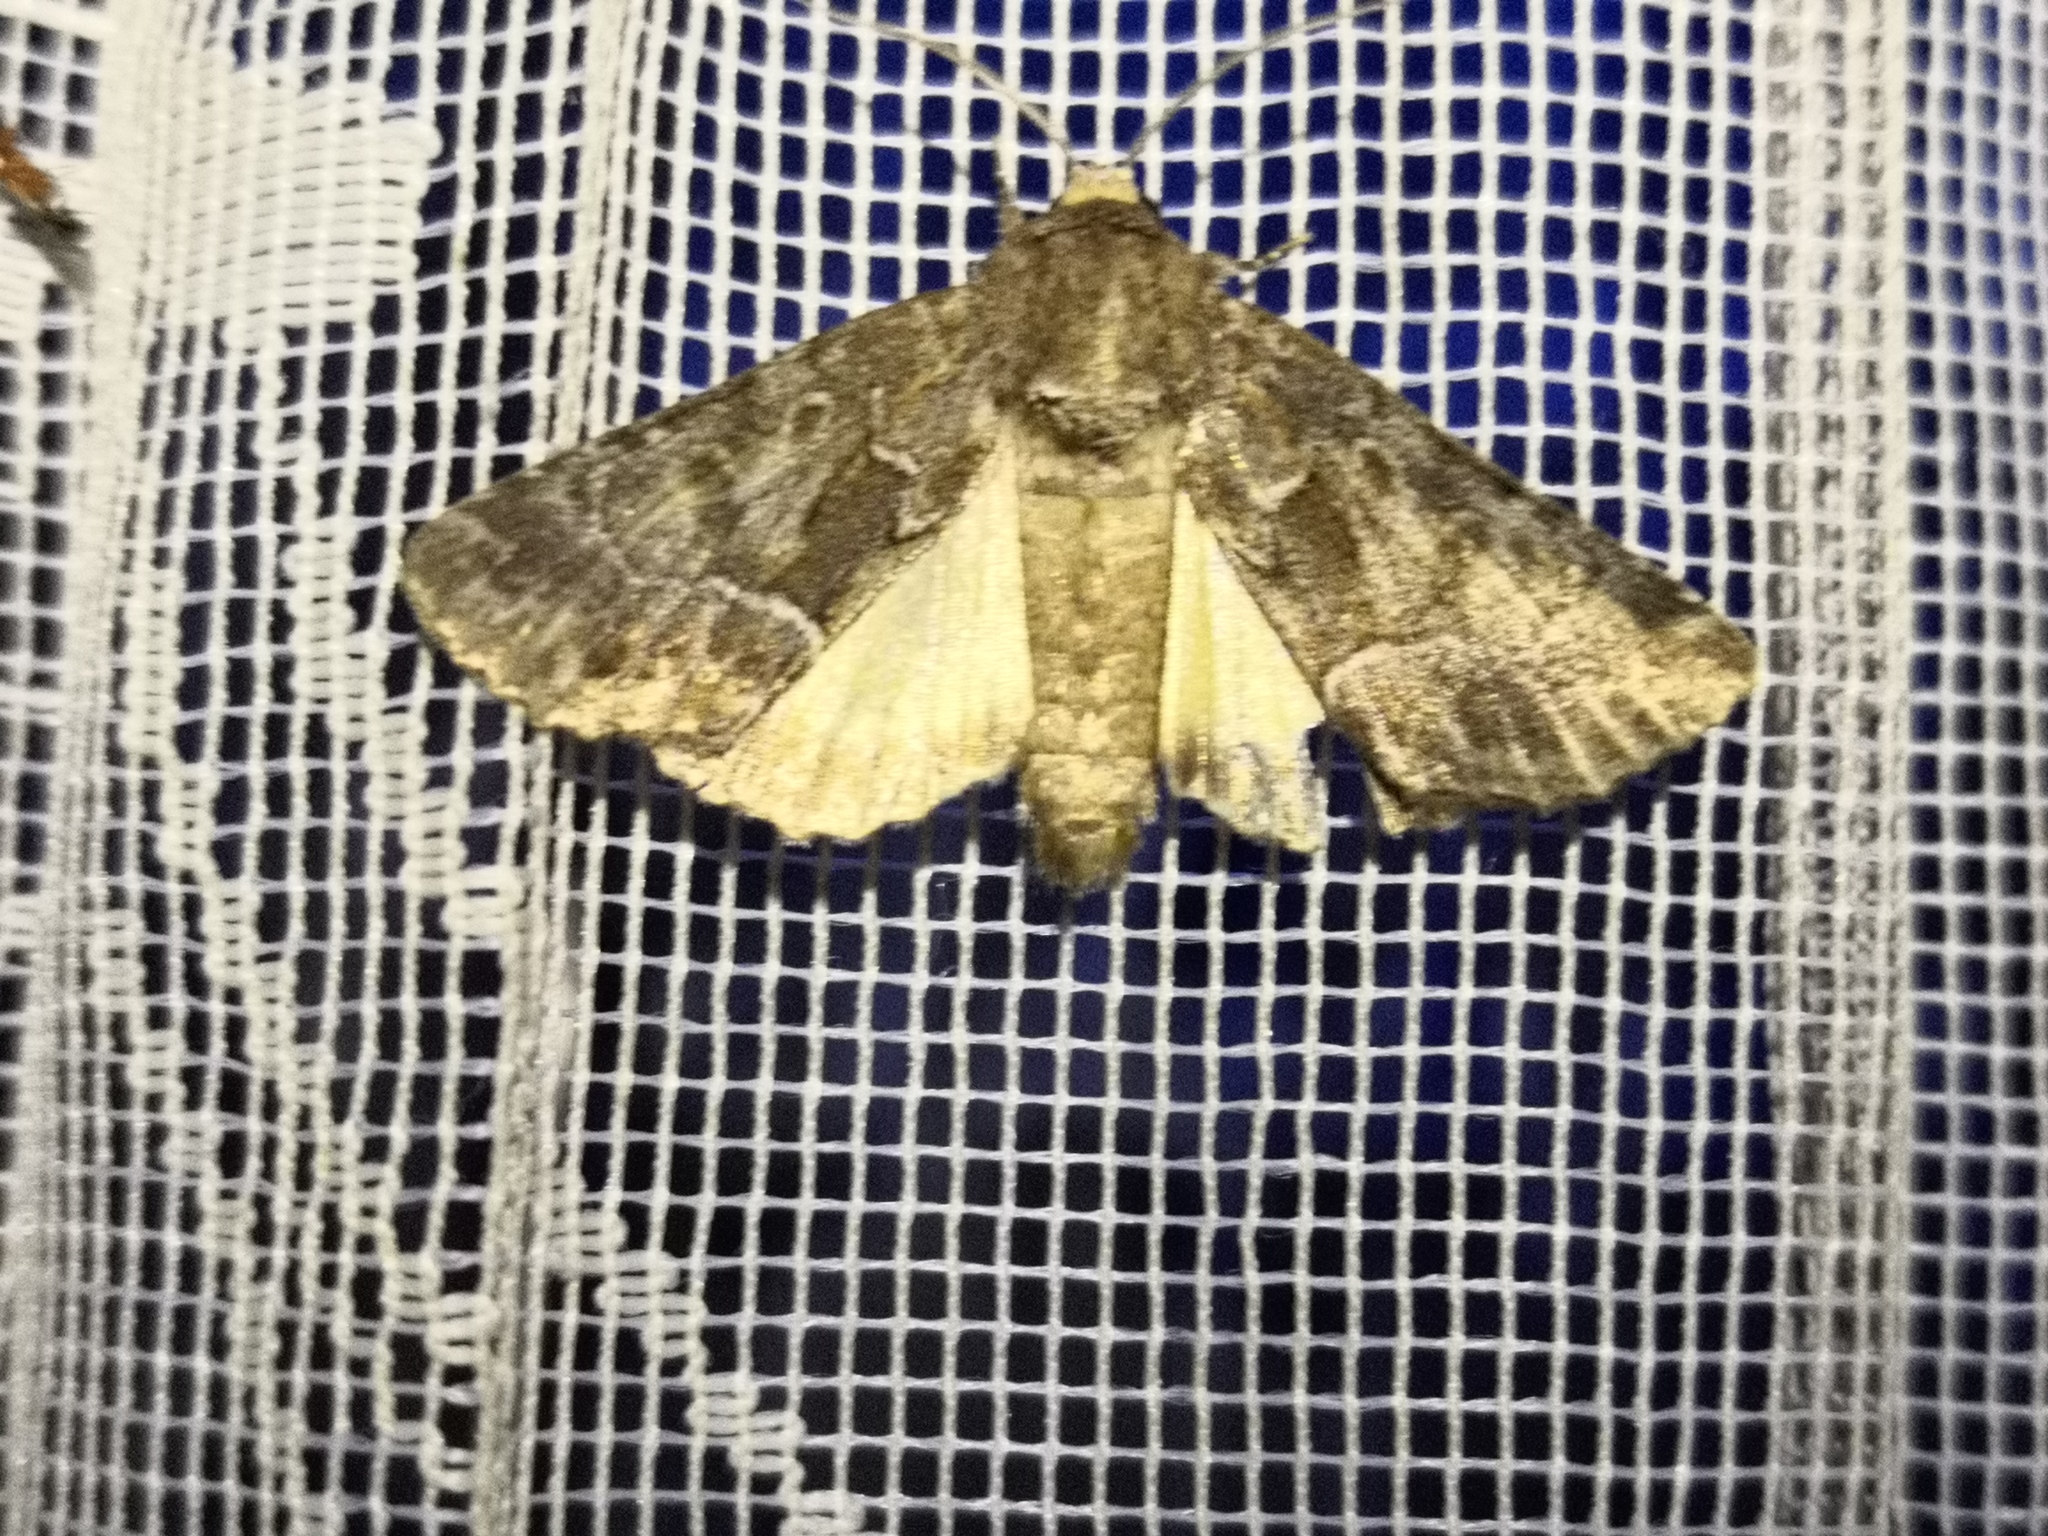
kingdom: Animalia
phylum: Arthropoda
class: Insecta
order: Lepidoptera
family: Noctuidae
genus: Thalpophila
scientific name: Thalpophila matura
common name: Straw underwing
